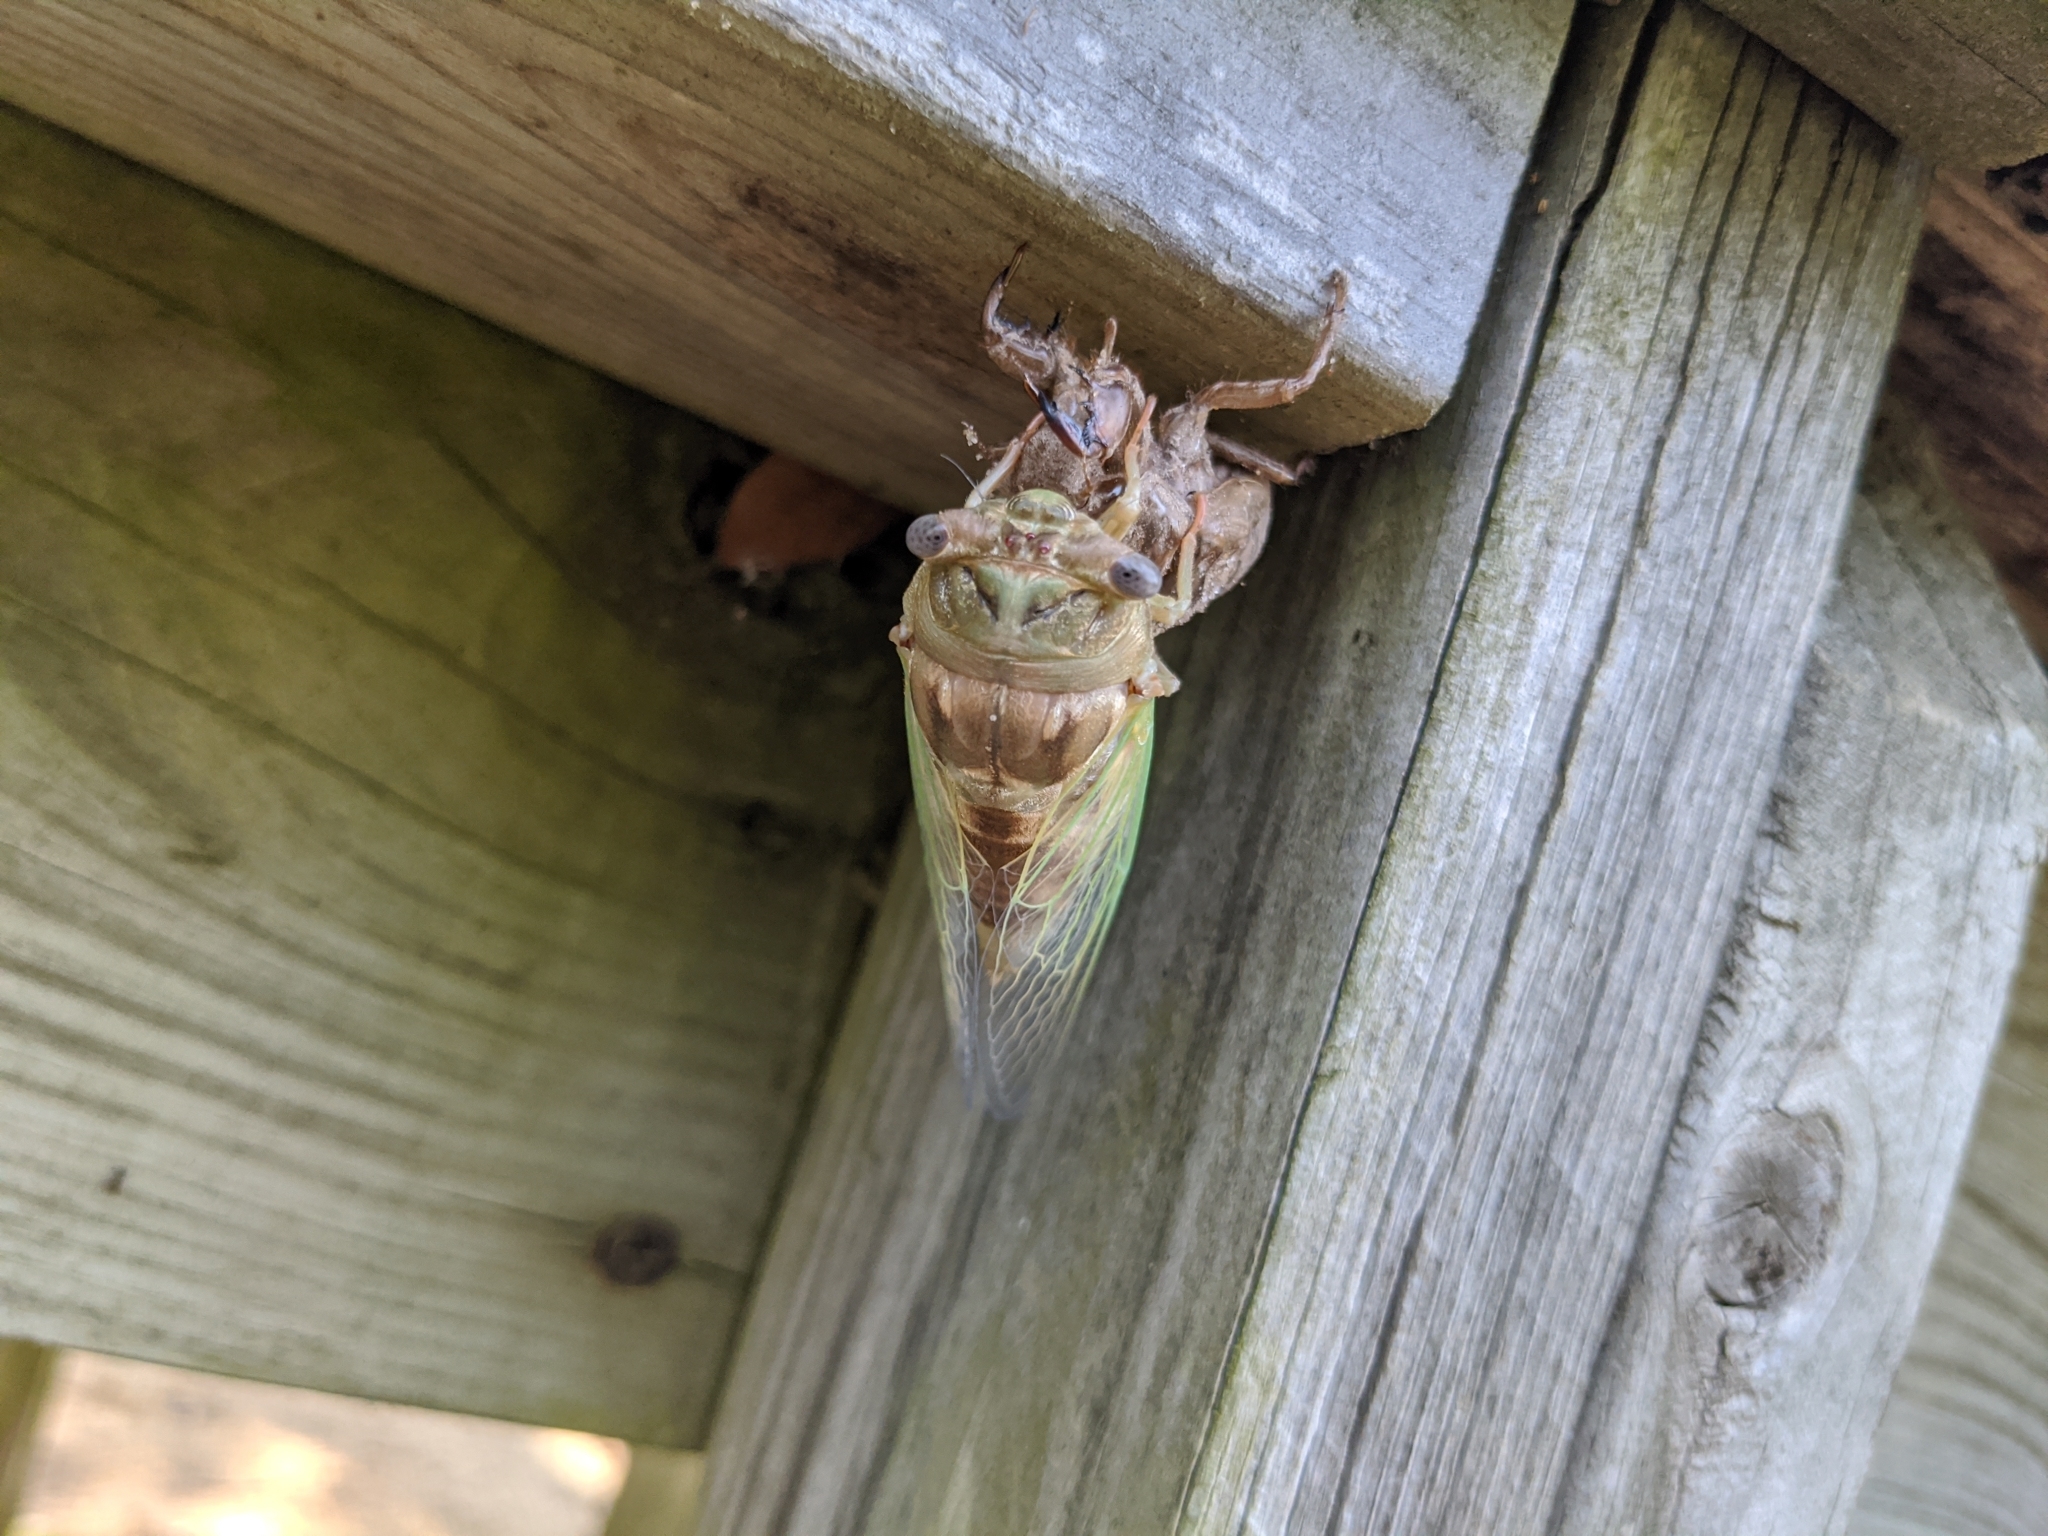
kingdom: Animalia
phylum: Arthropoda
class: Insecta
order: Hemiptera
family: Cicadidae
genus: Megatibicen
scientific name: Megatibicen resh
